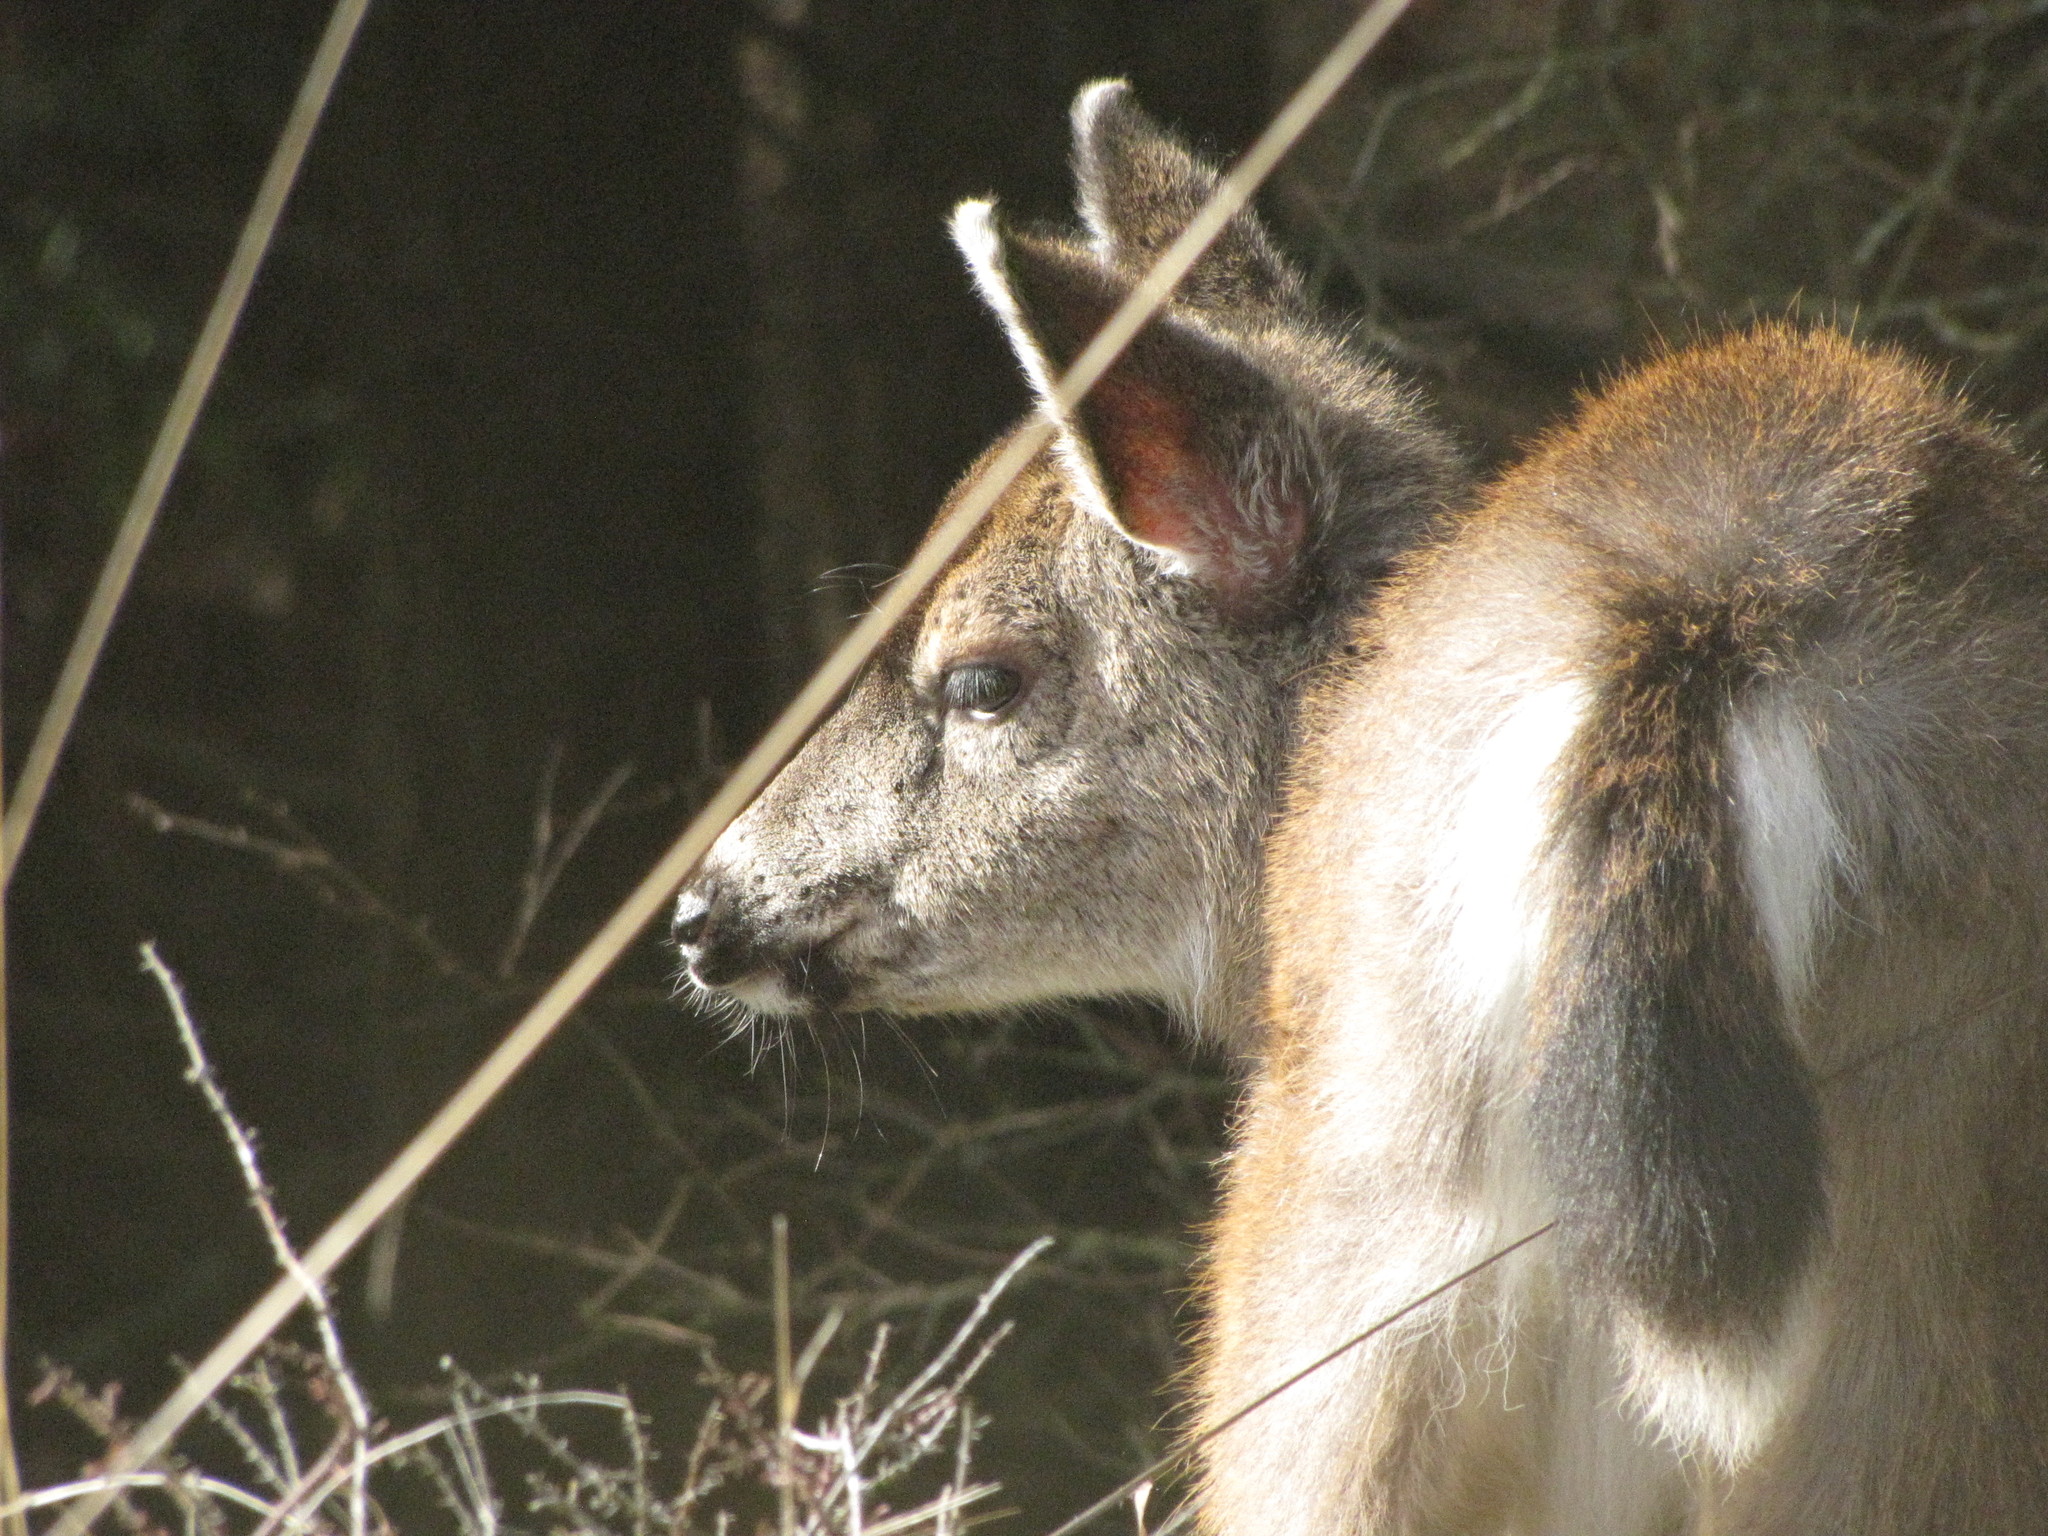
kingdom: Animalia
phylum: Chordata
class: Mammalia
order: Artiodactyla
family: Cervidae
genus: Odocoileus
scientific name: Odocoileus hemionus
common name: Mule deer
